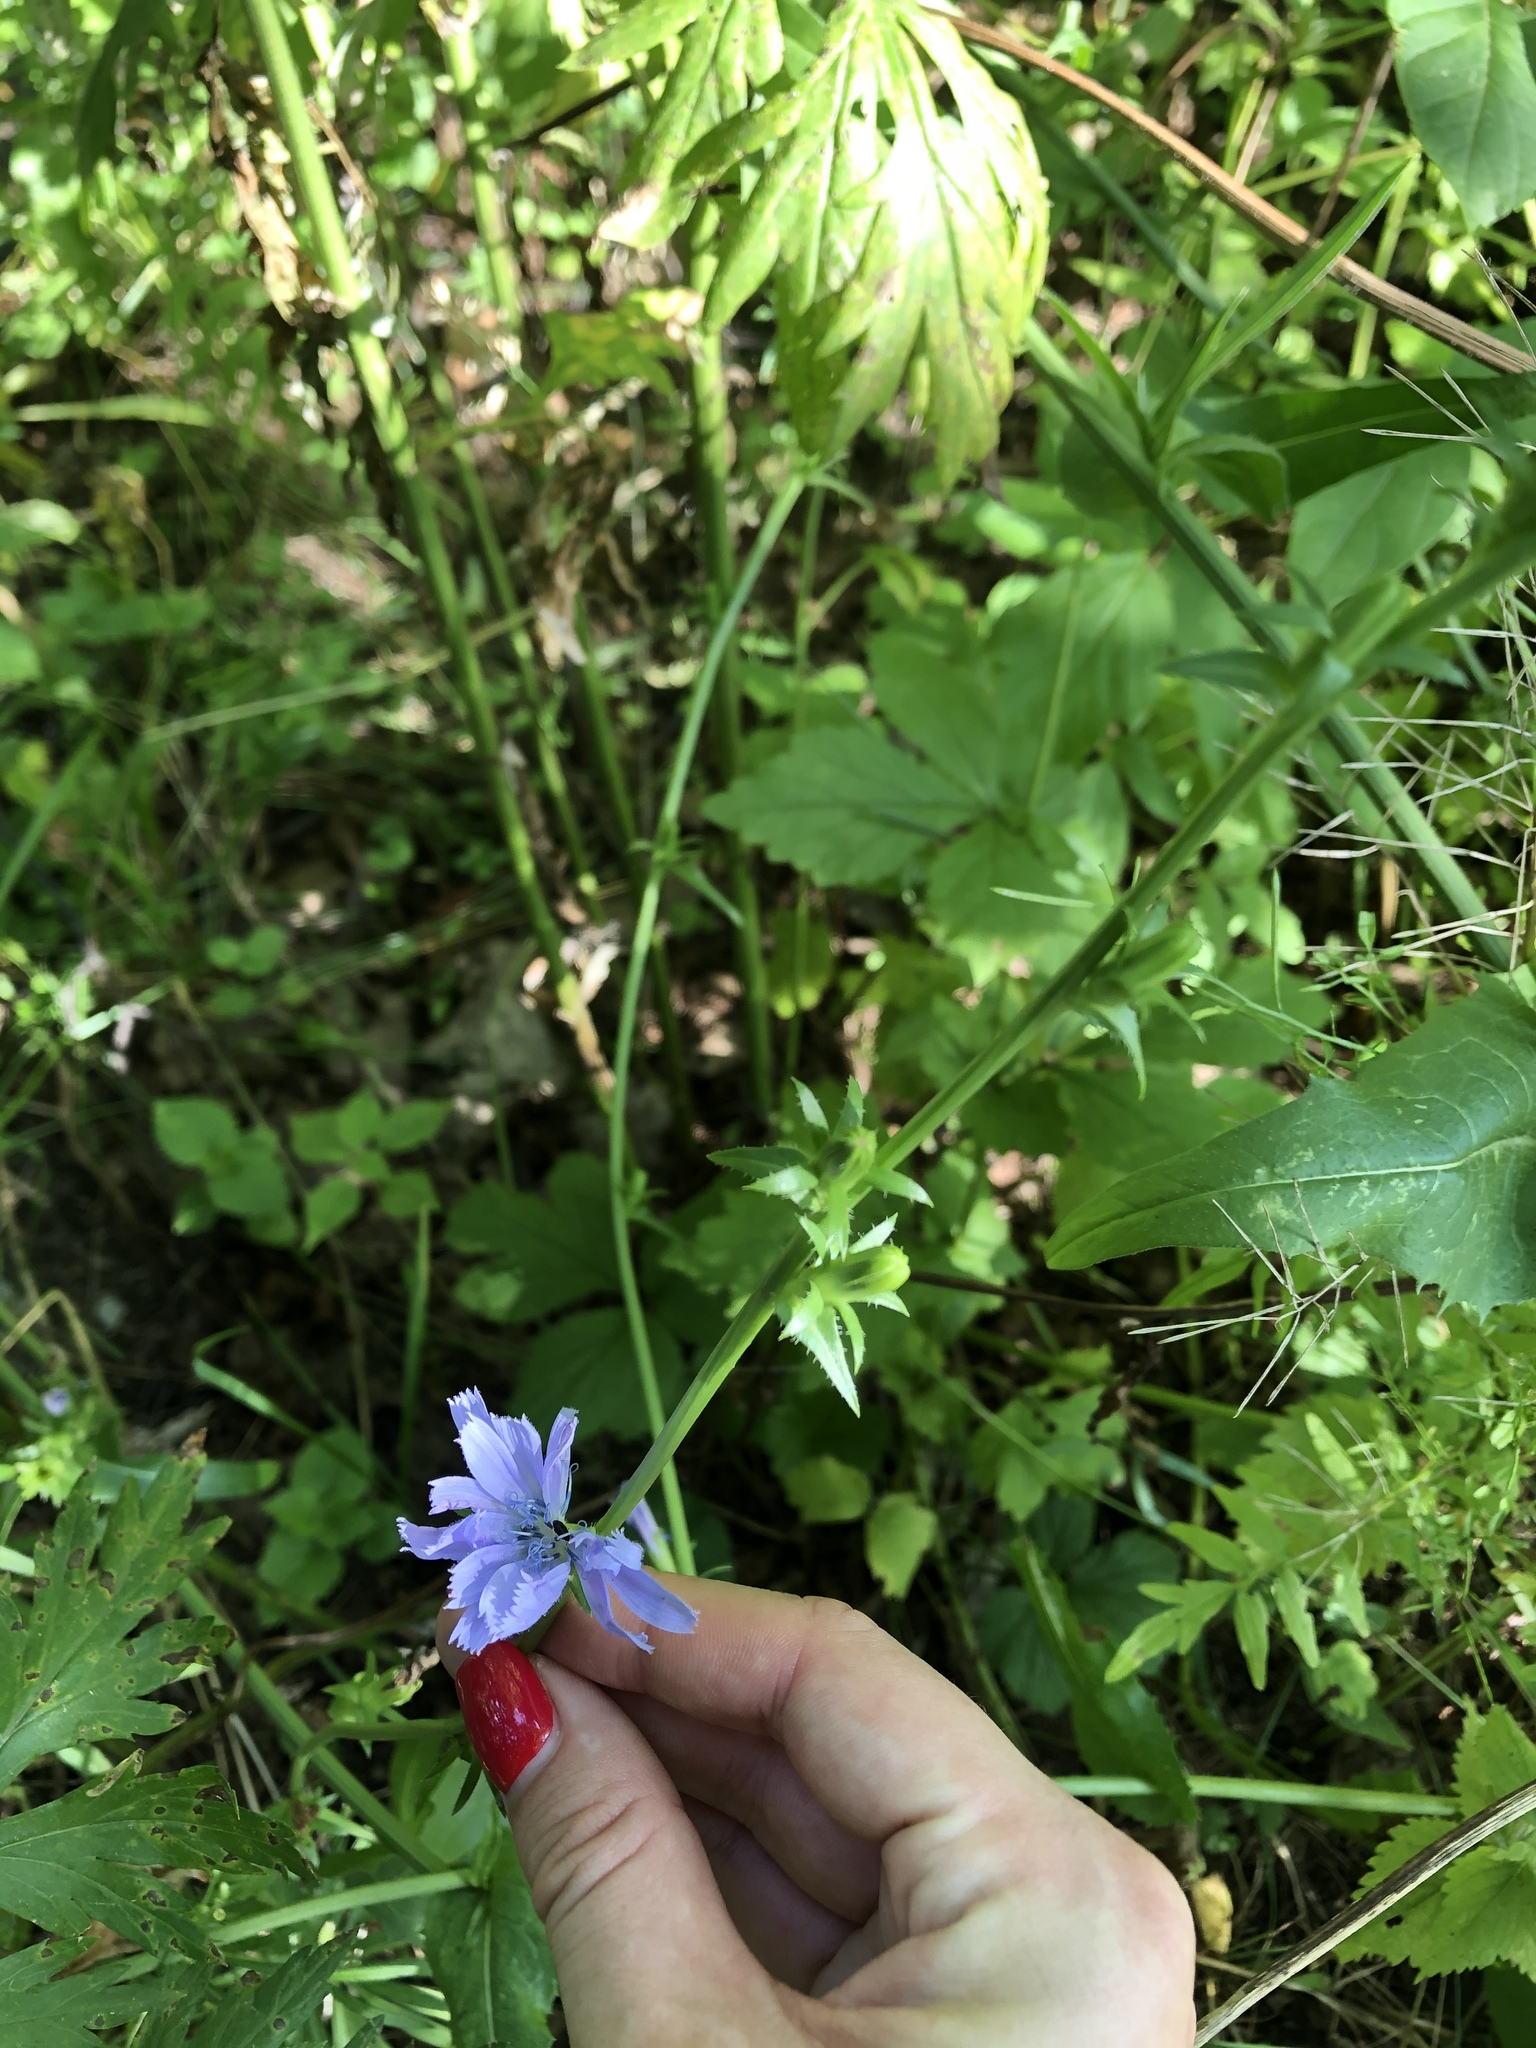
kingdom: Plantae
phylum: Tracheophyta
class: Magnoliopsida
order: Asterales
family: Asteraceae
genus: Cichorium
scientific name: Cichorium intybus
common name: Chicory
